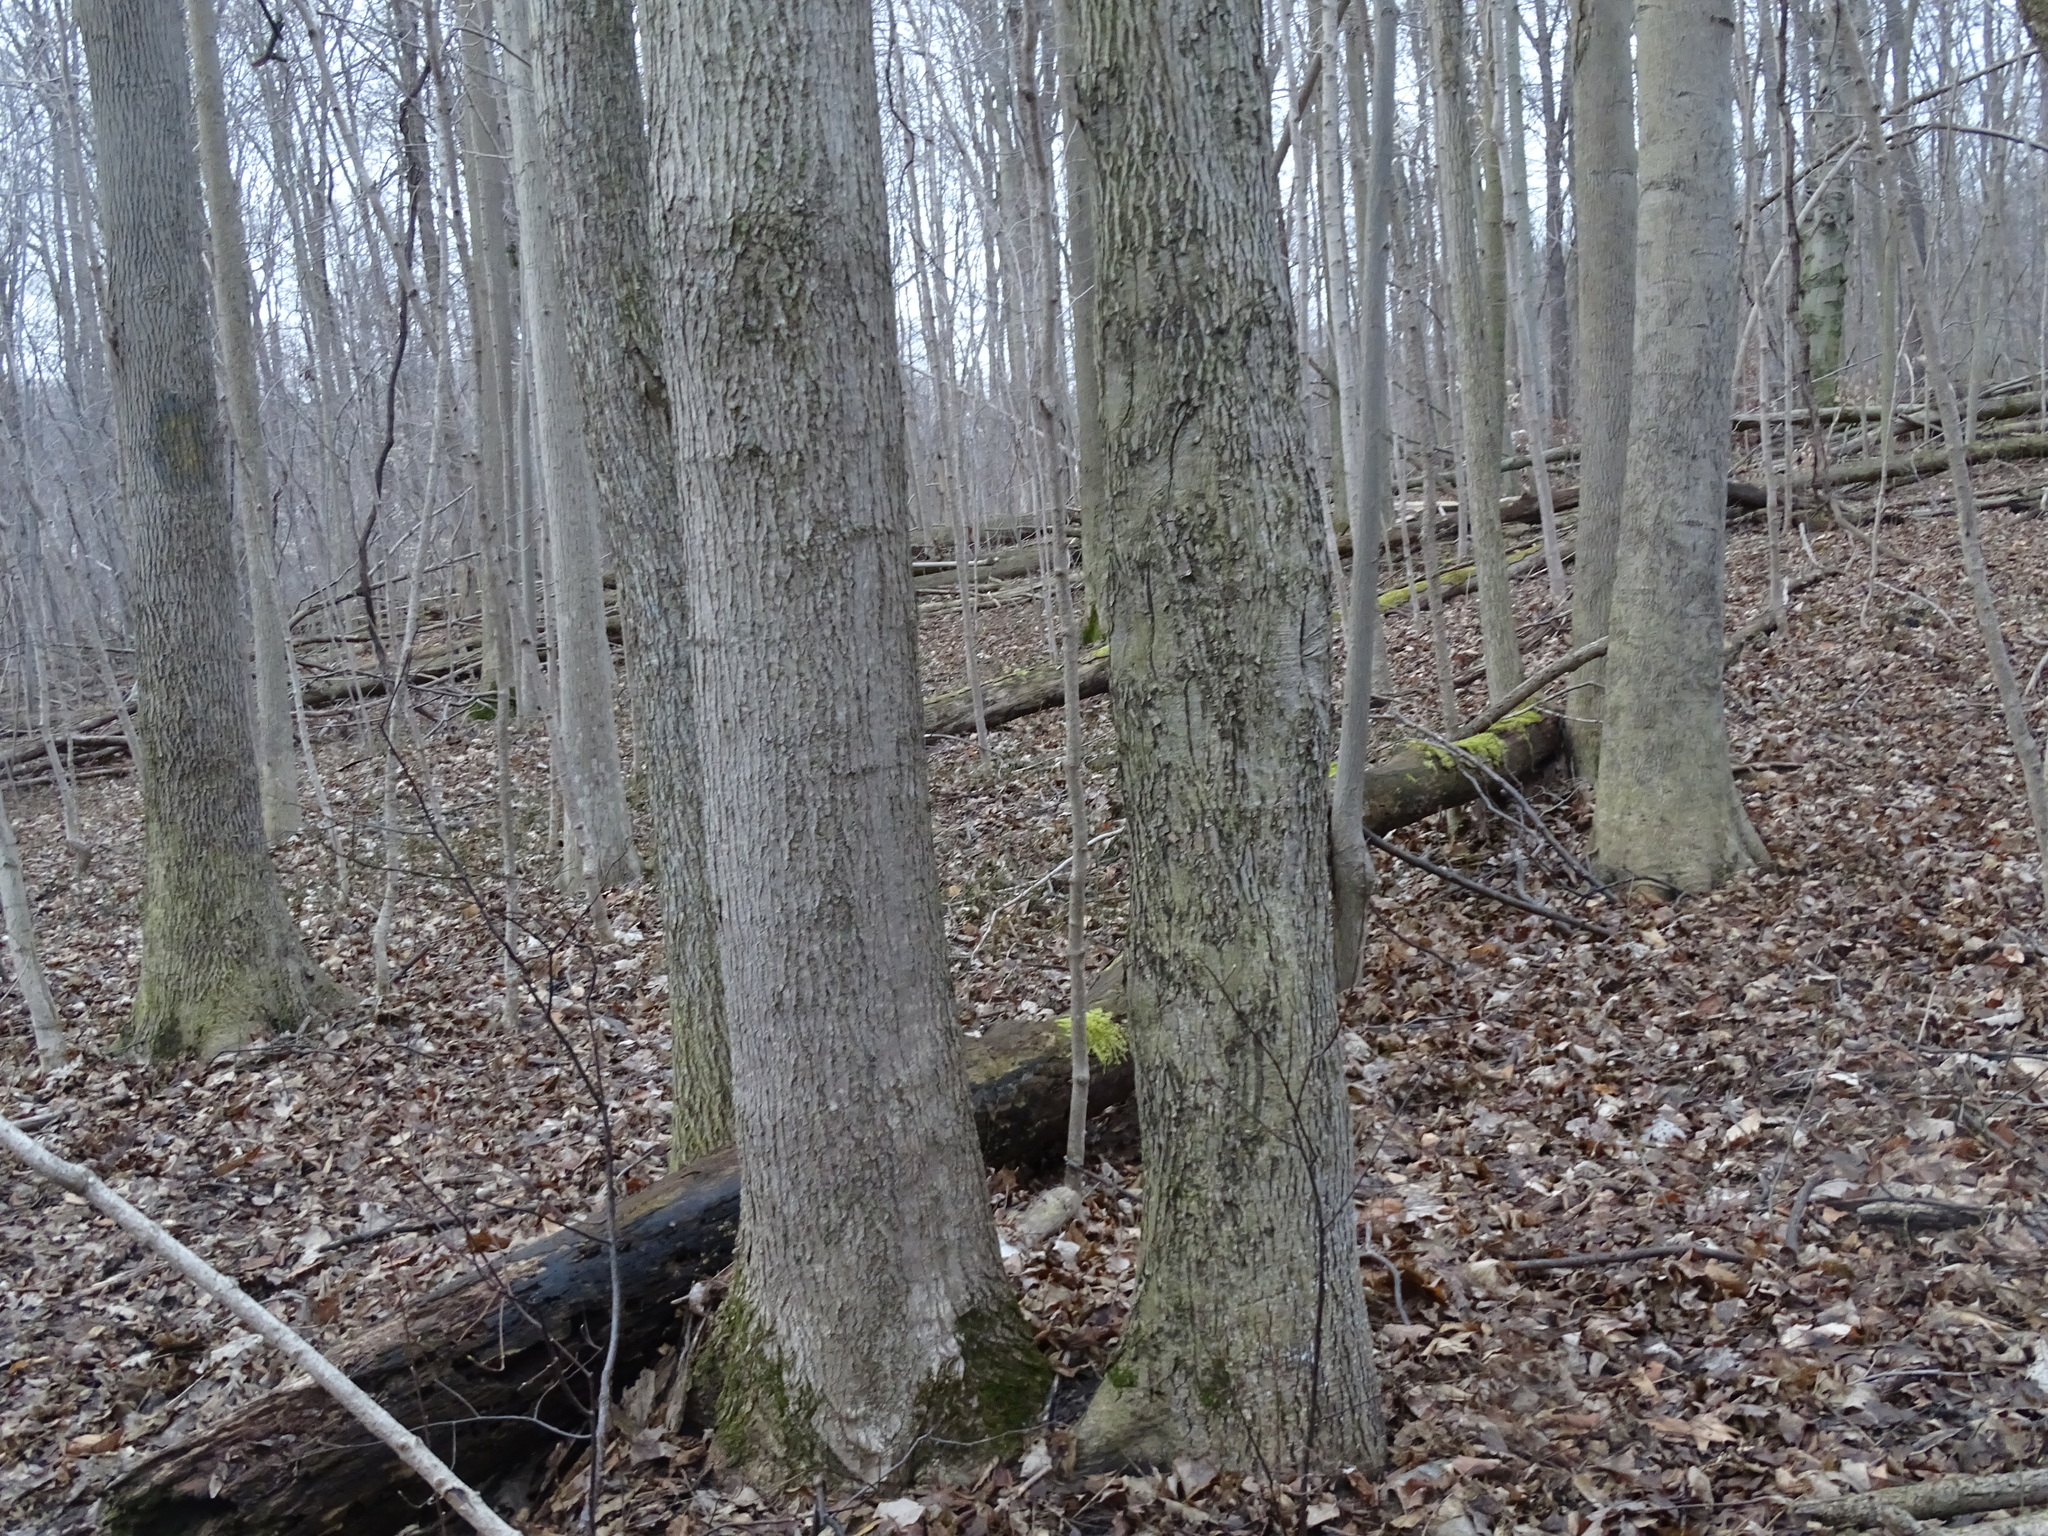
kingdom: Plantae
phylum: Tracheophyta
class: Magnoliopsida
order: Fagales
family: Juglandaceae
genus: Carya
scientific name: Carya cordiformis
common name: Bitternut hickory
